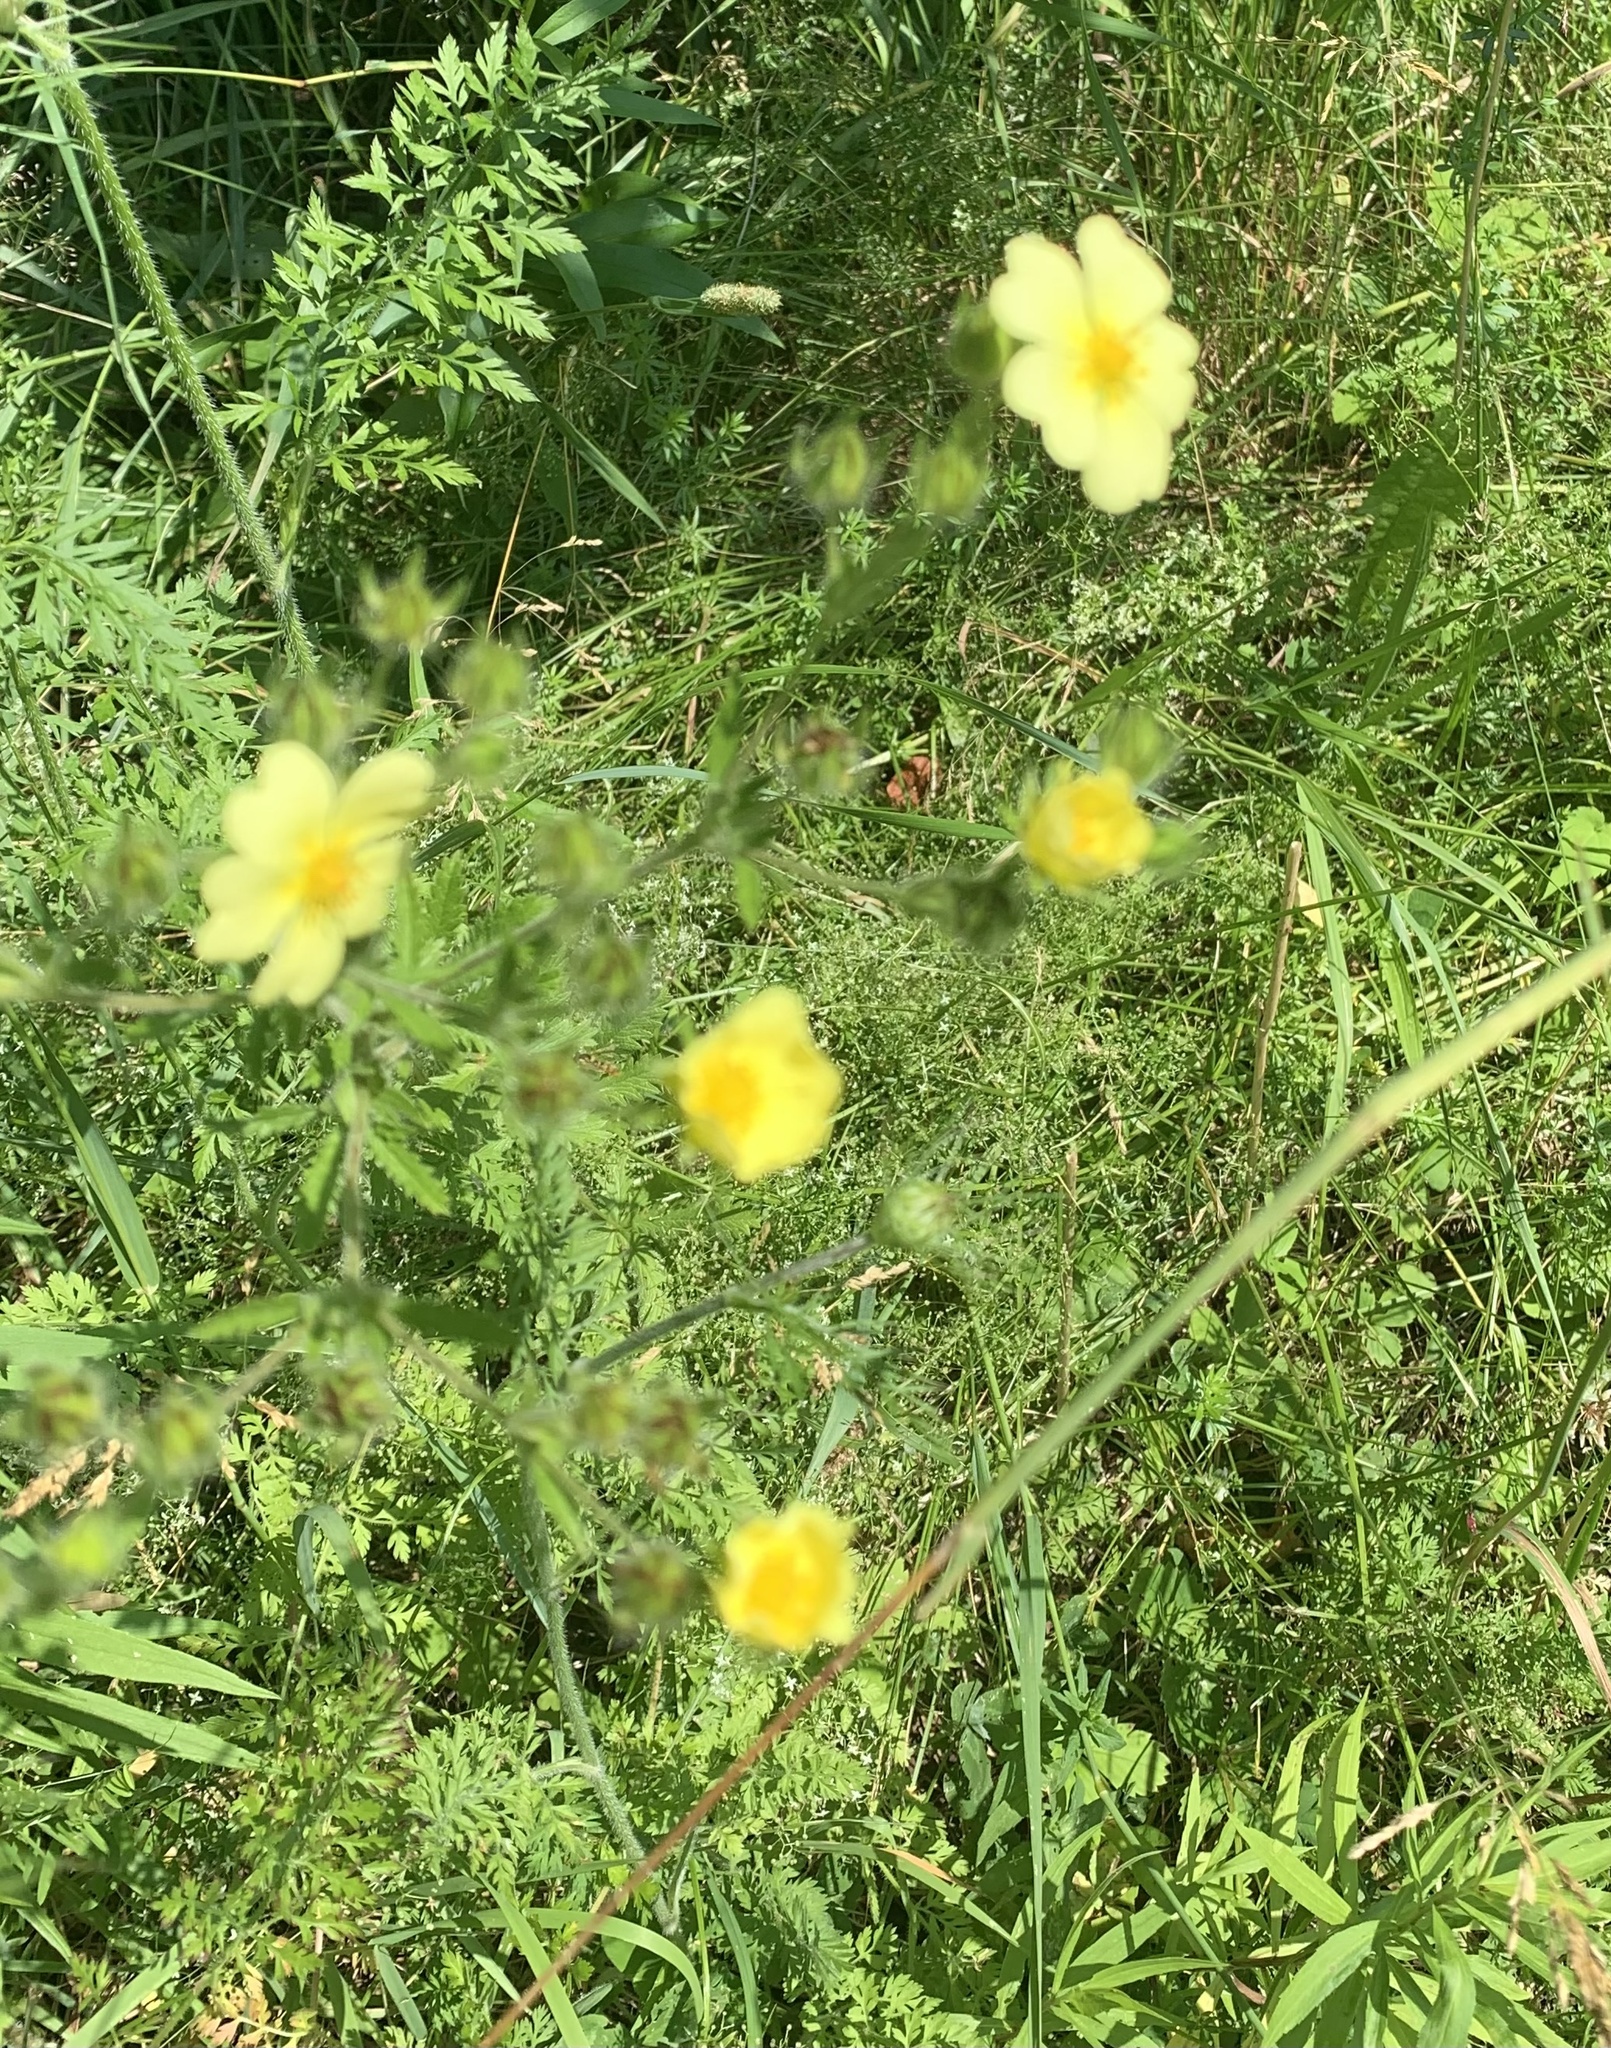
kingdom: Plantae
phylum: Tracheophyta
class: Magnoliopsida
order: Rosales
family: Rosaceae
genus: Potentilla
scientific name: Potentilla recta
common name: Sulphur cinquefoil
